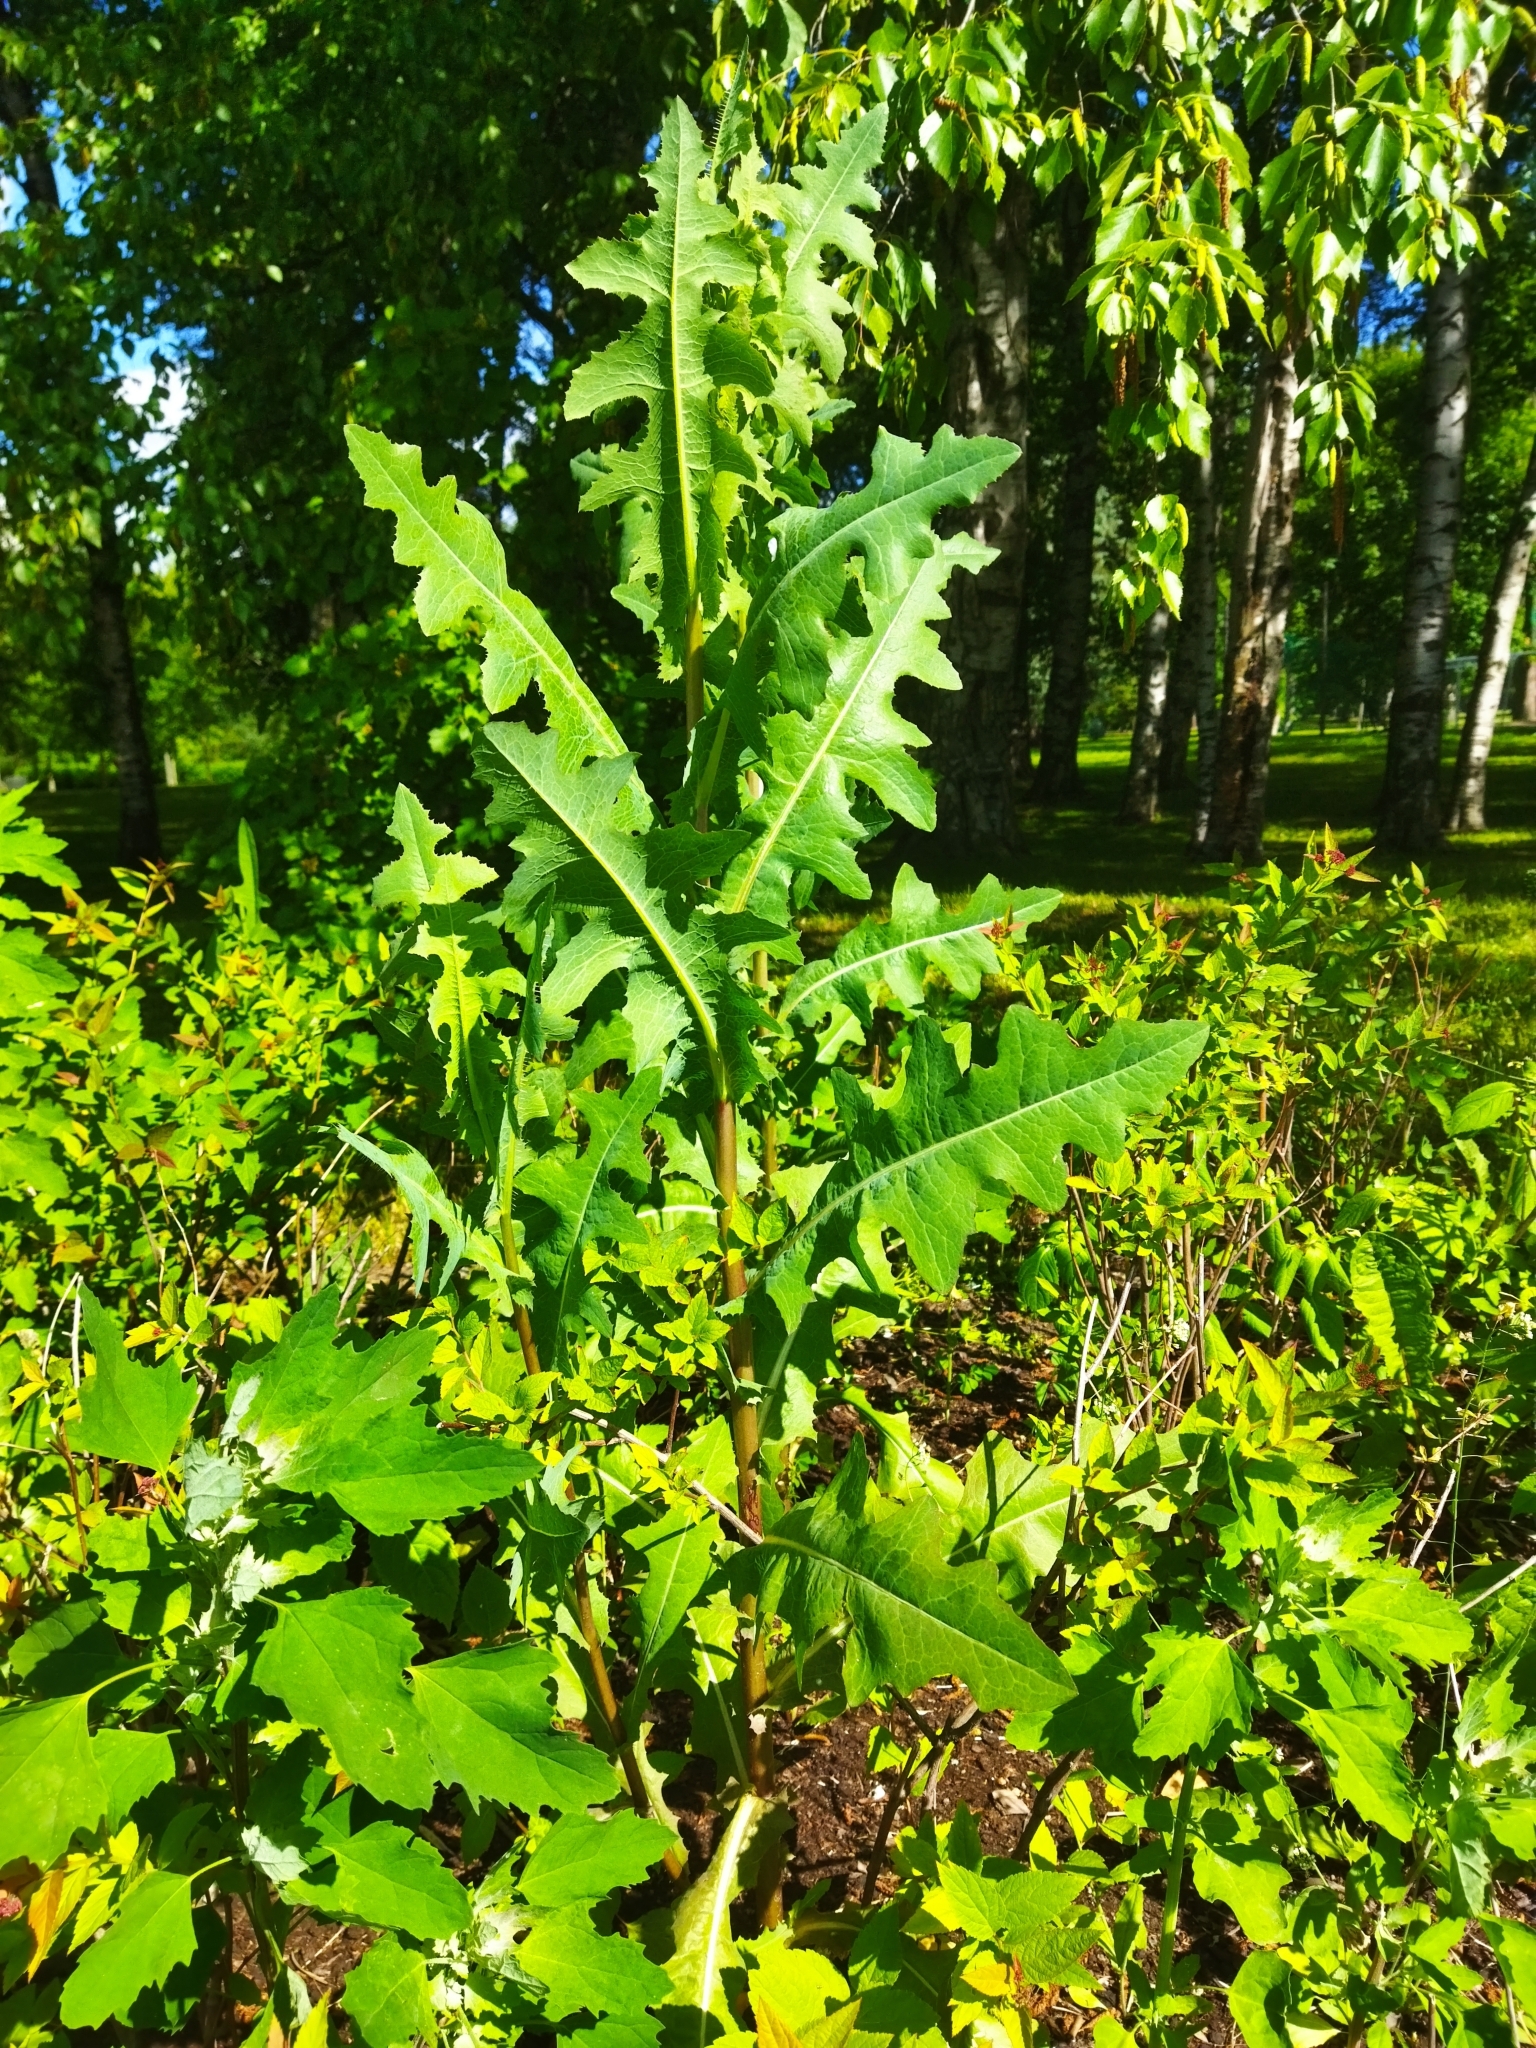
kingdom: Plantae
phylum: Tracheophyta
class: Magnoliopsida
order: Asterales
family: Asteraceae
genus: Lactuca
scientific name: Lactuca serriola
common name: Prickly lettuce
